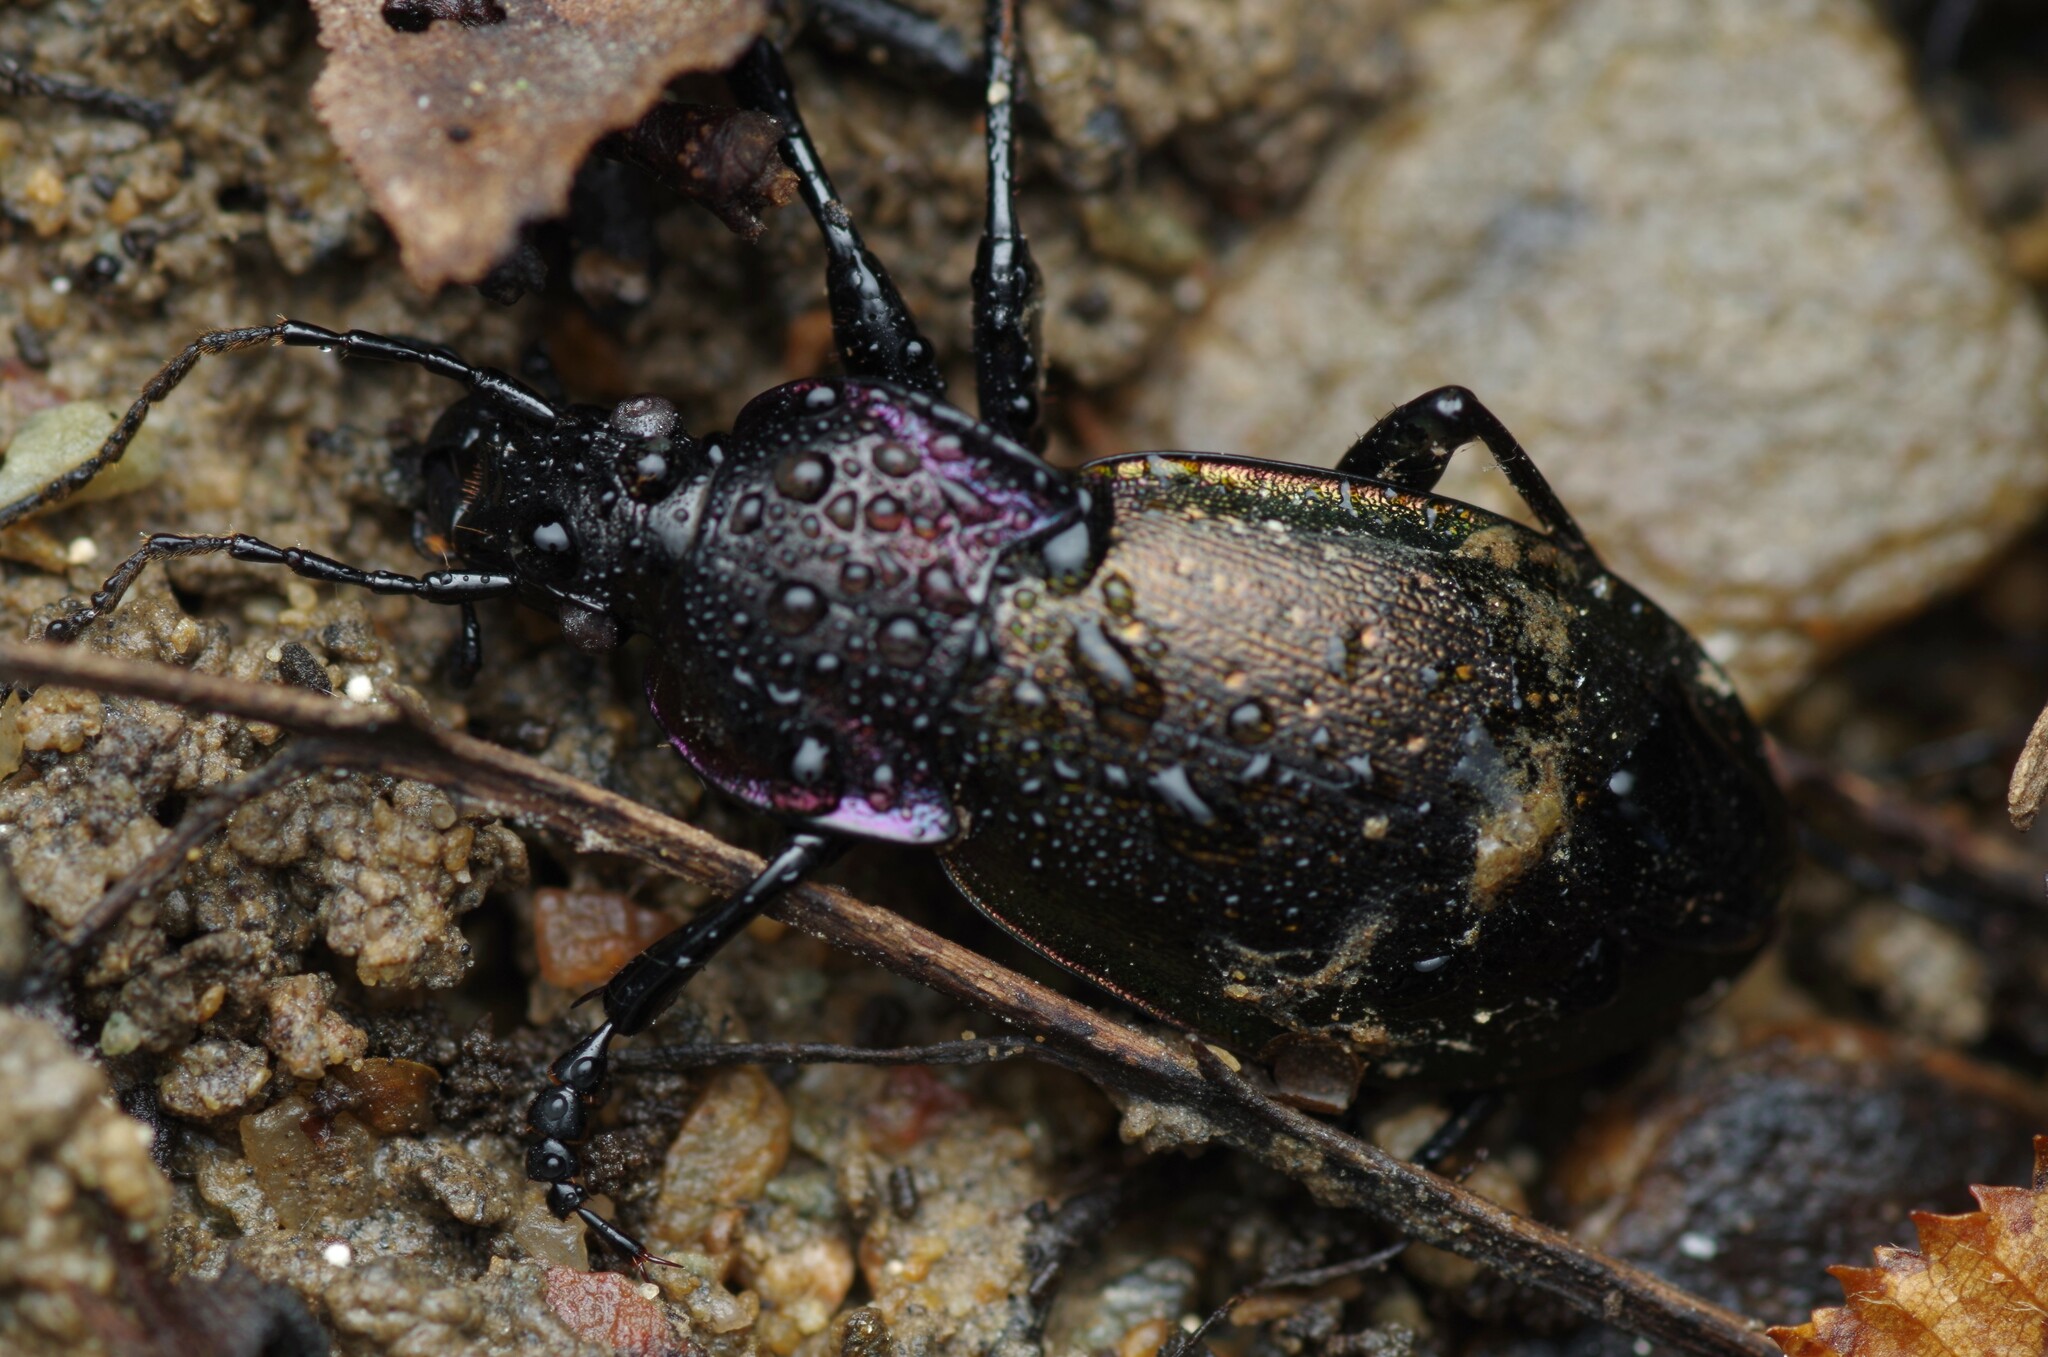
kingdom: Animalia
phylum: Arthropoda
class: Insecta
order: Coleoptera
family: Carabidae
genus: Carabus
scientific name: Carabus nemoralis
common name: European ground beetle
